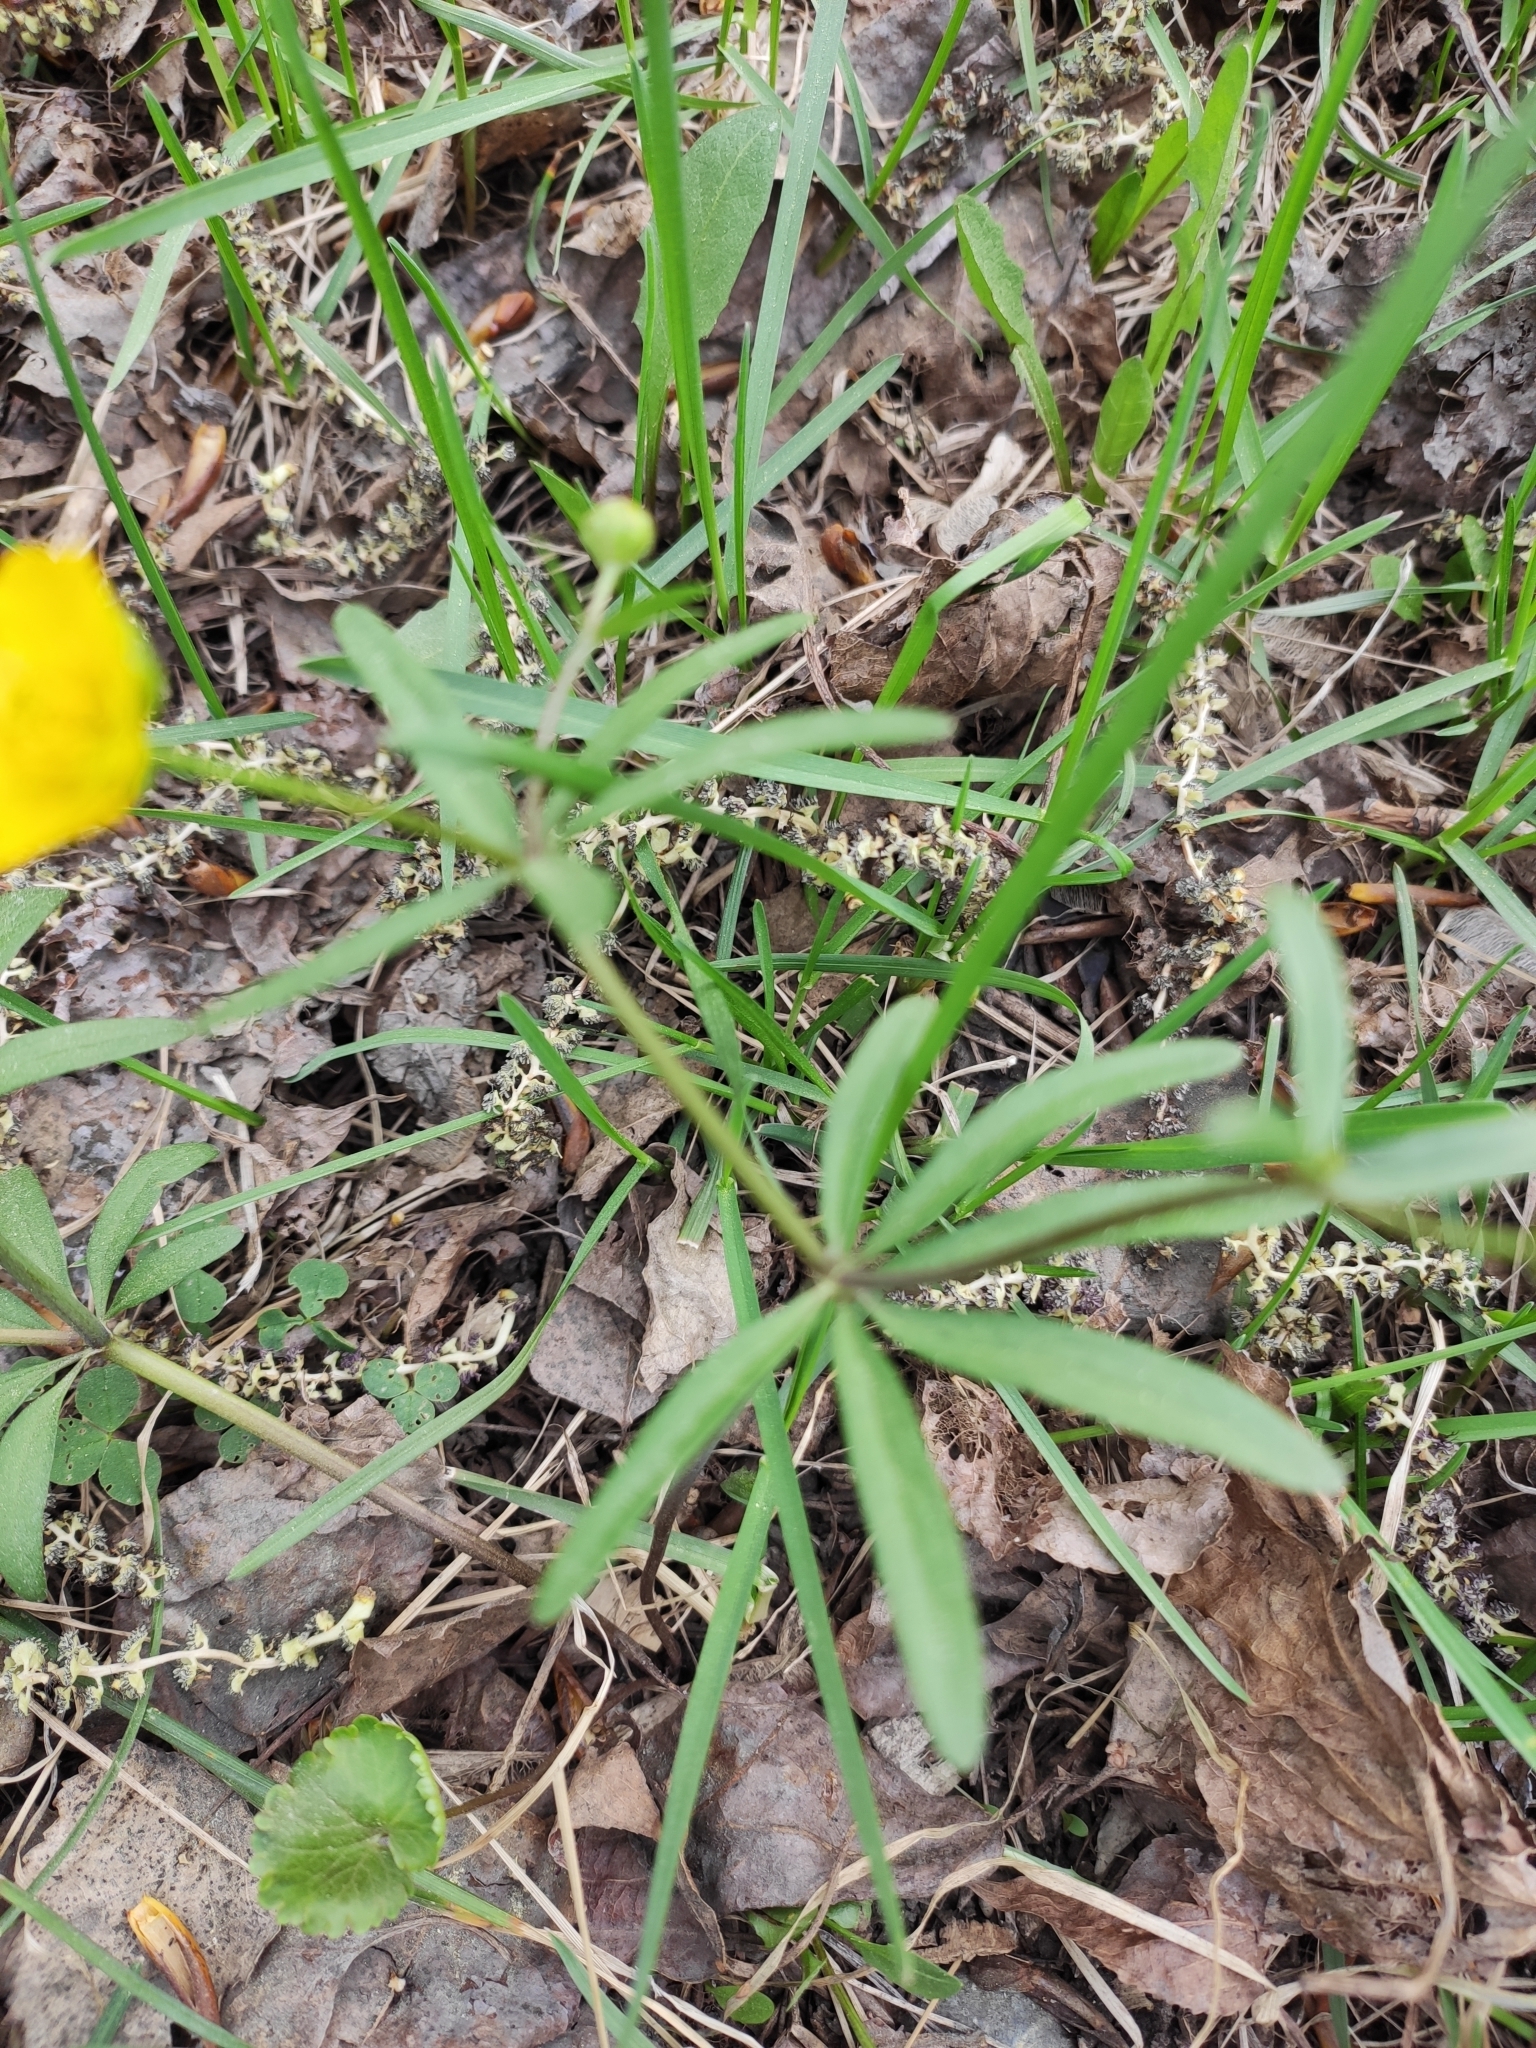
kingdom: Plantae
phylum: Tracheophyta
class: Magnoliopsida
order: Ranunculales
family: Ranunculaceae
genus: Ranunculus
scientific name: Ranunculus monophyllus
